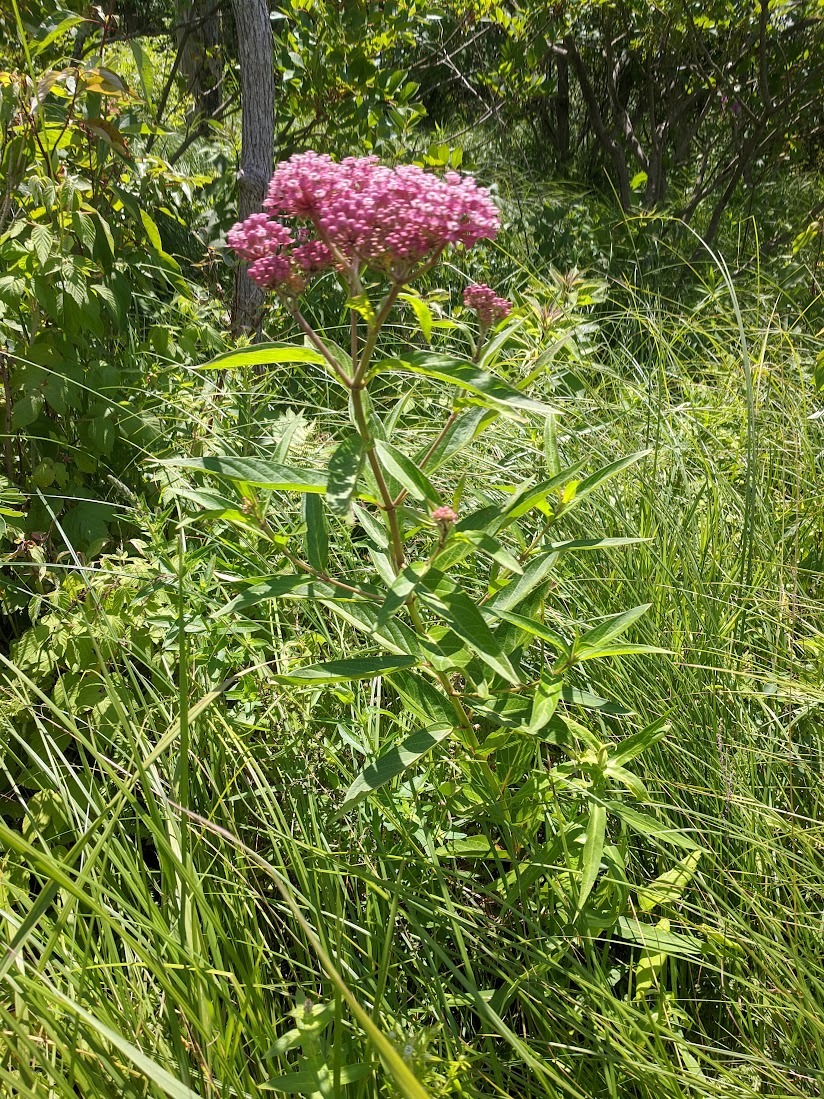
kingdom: Plantae
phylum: Tracheophyta
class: Magnoliopsida
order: Gentianales
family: Apocynaceae
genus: Asclepias
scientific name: Asclepias incarnata
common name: Swamp milkweed
